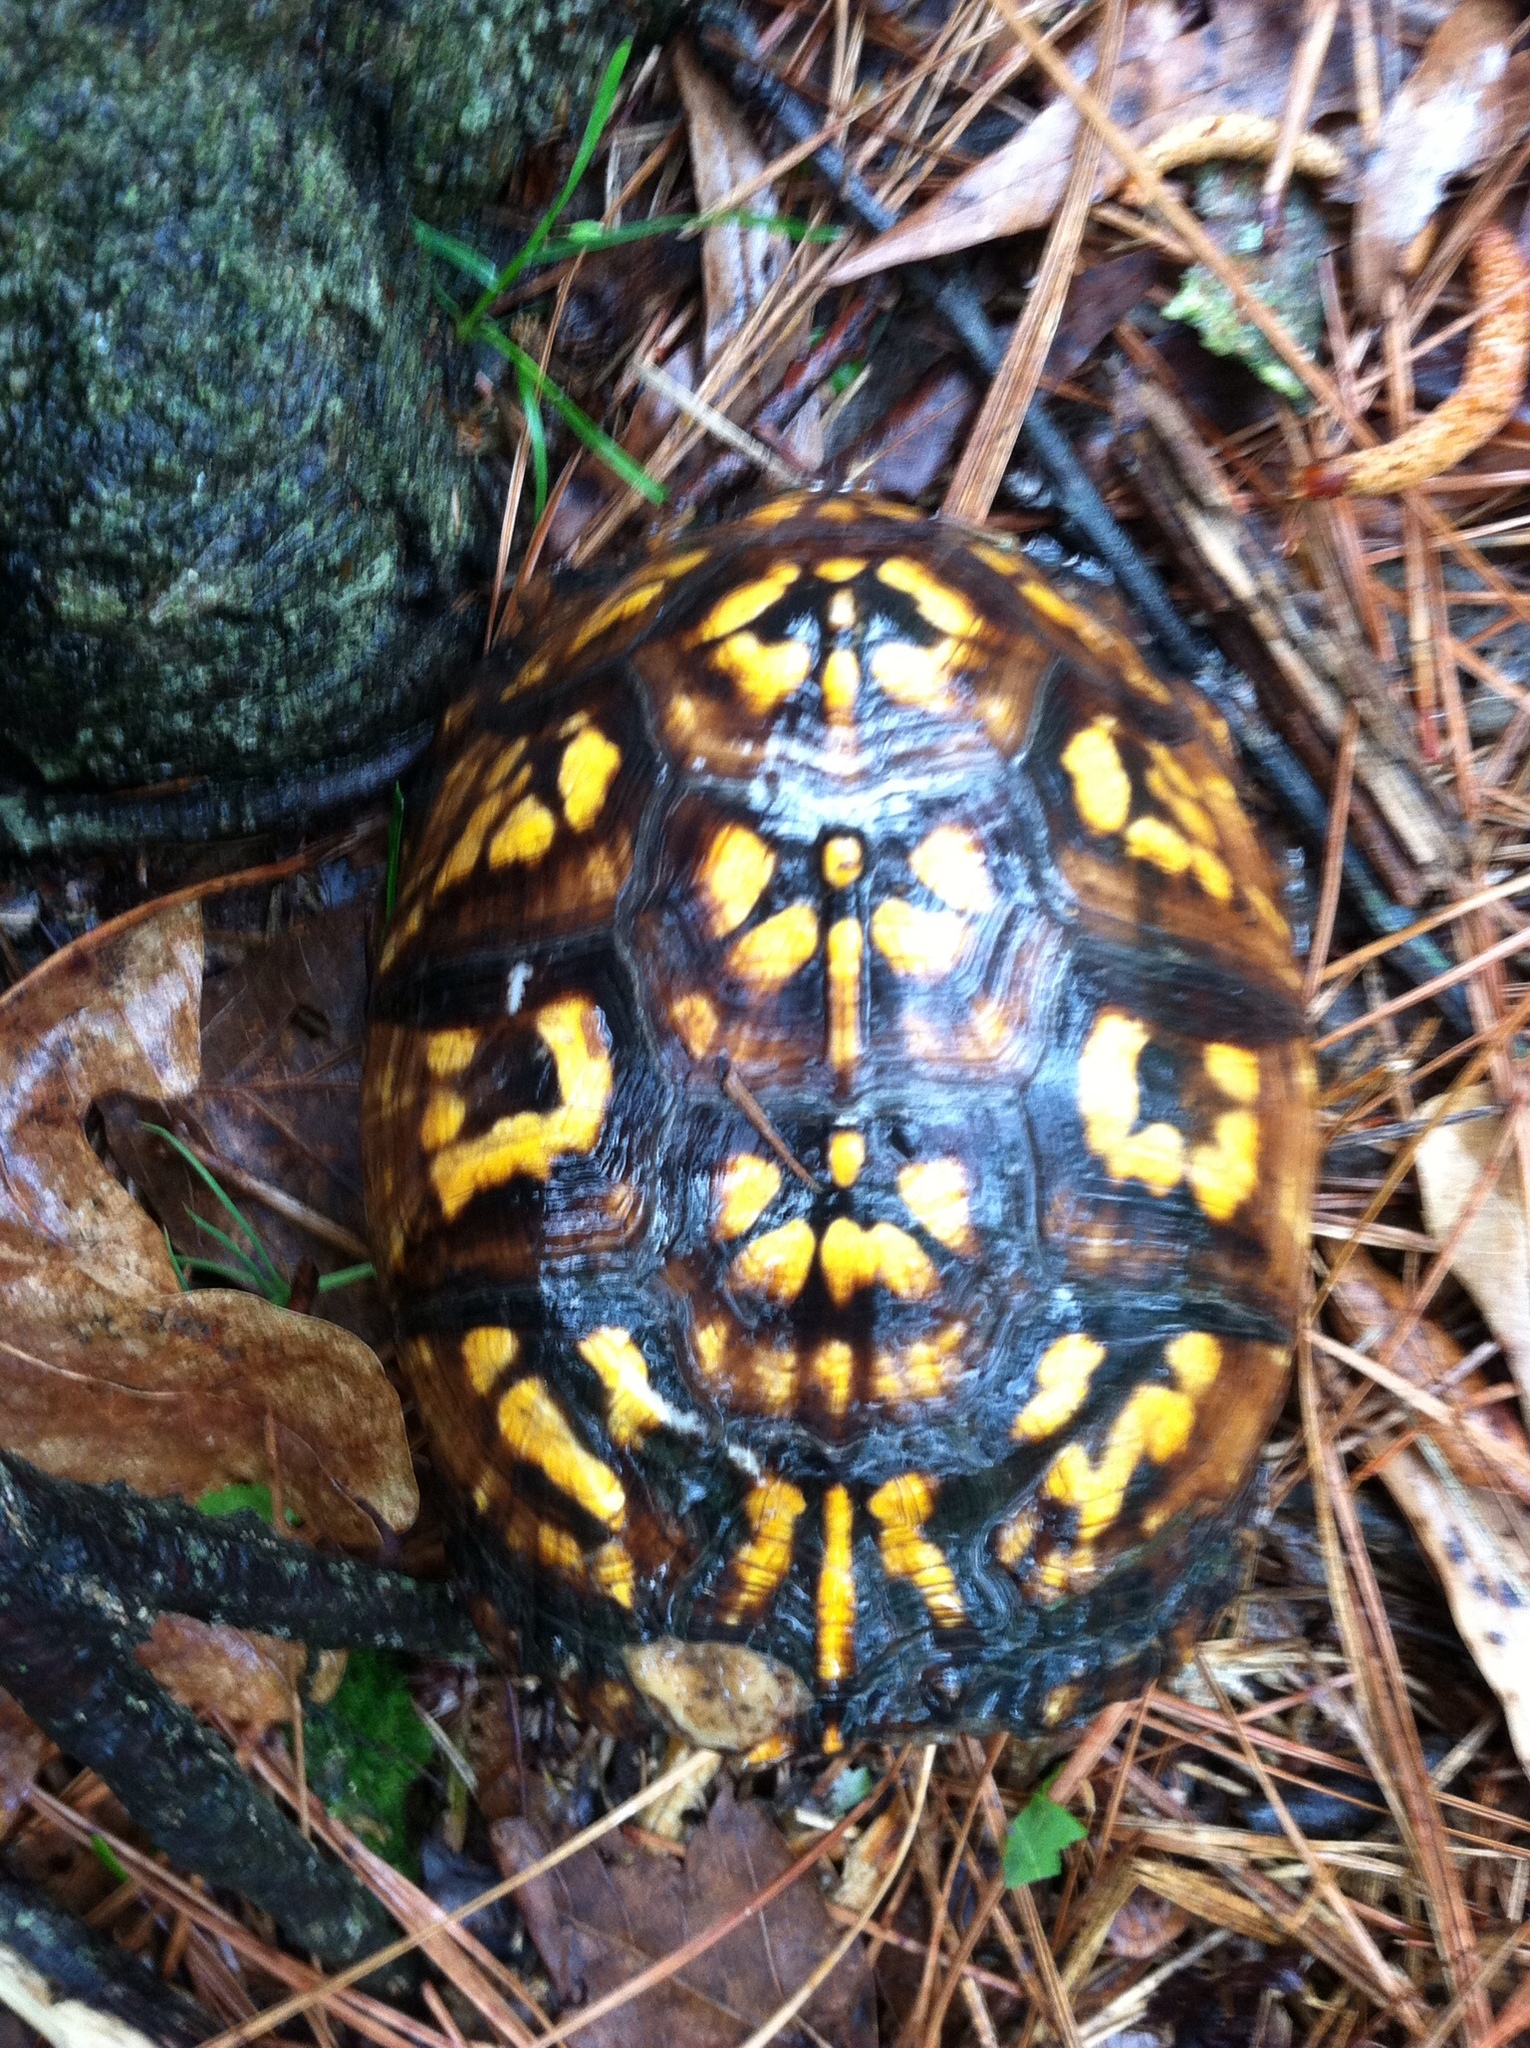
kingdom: Animalia
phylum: Chordata
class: Testudines
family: Emydidae
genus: Terrapene
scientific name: Terrapene carolina
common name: Common box turtle
